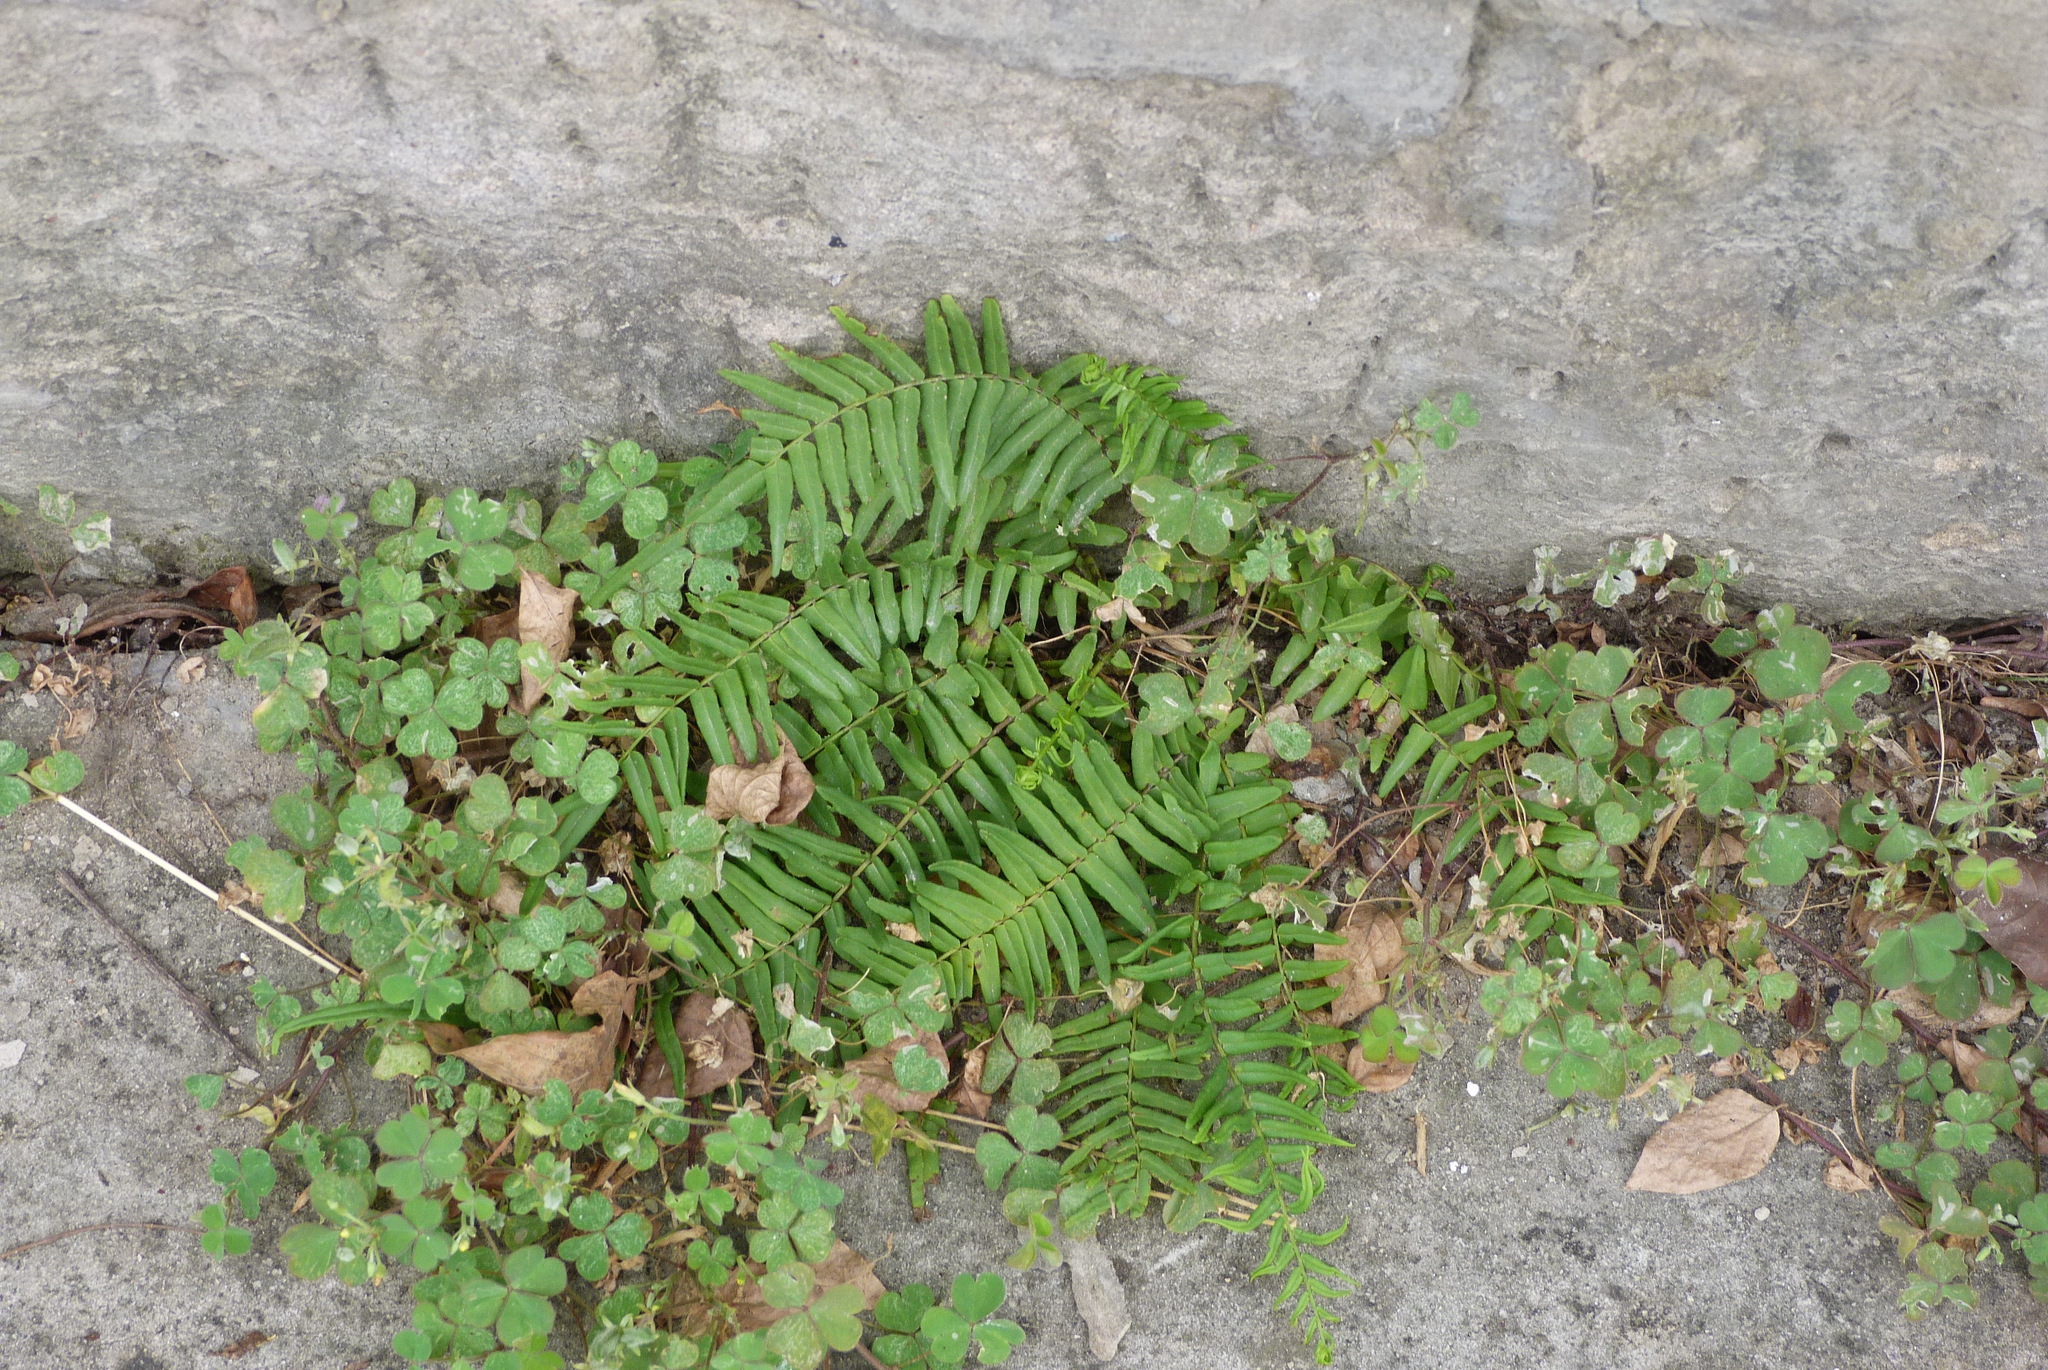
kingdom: Plantae
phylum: Tracheophyta
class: Polypodiopsida
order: Polypodiales
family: Pteridaceae
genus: Pteris
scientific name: Pteris vittata
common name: Ladder brake
